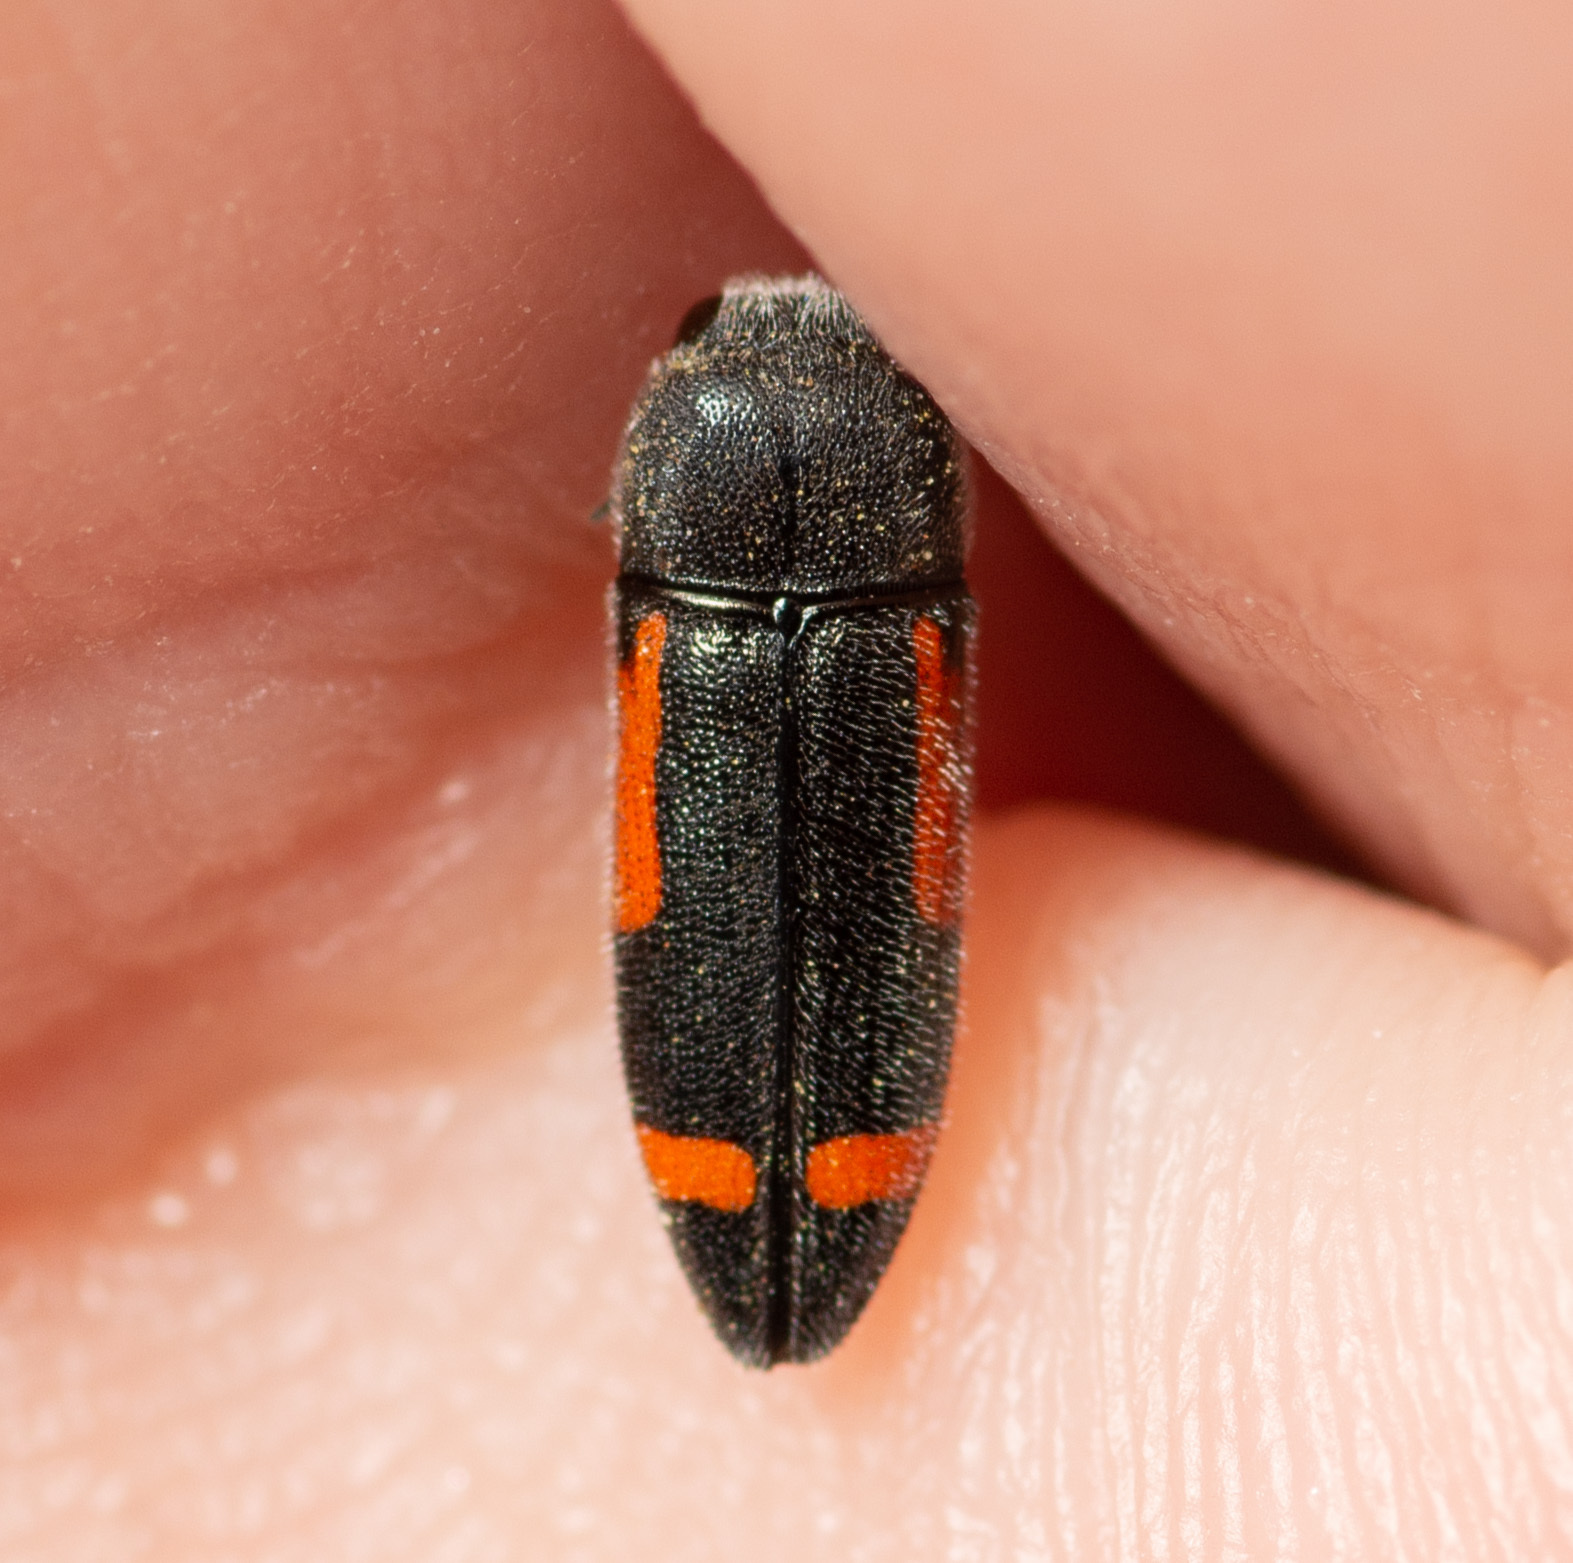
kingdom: Animalia
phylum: Arthropoda
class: Insecta
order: Coleoptera
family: Buprestidae
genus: Ptosima
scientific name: Ptosima laeta
